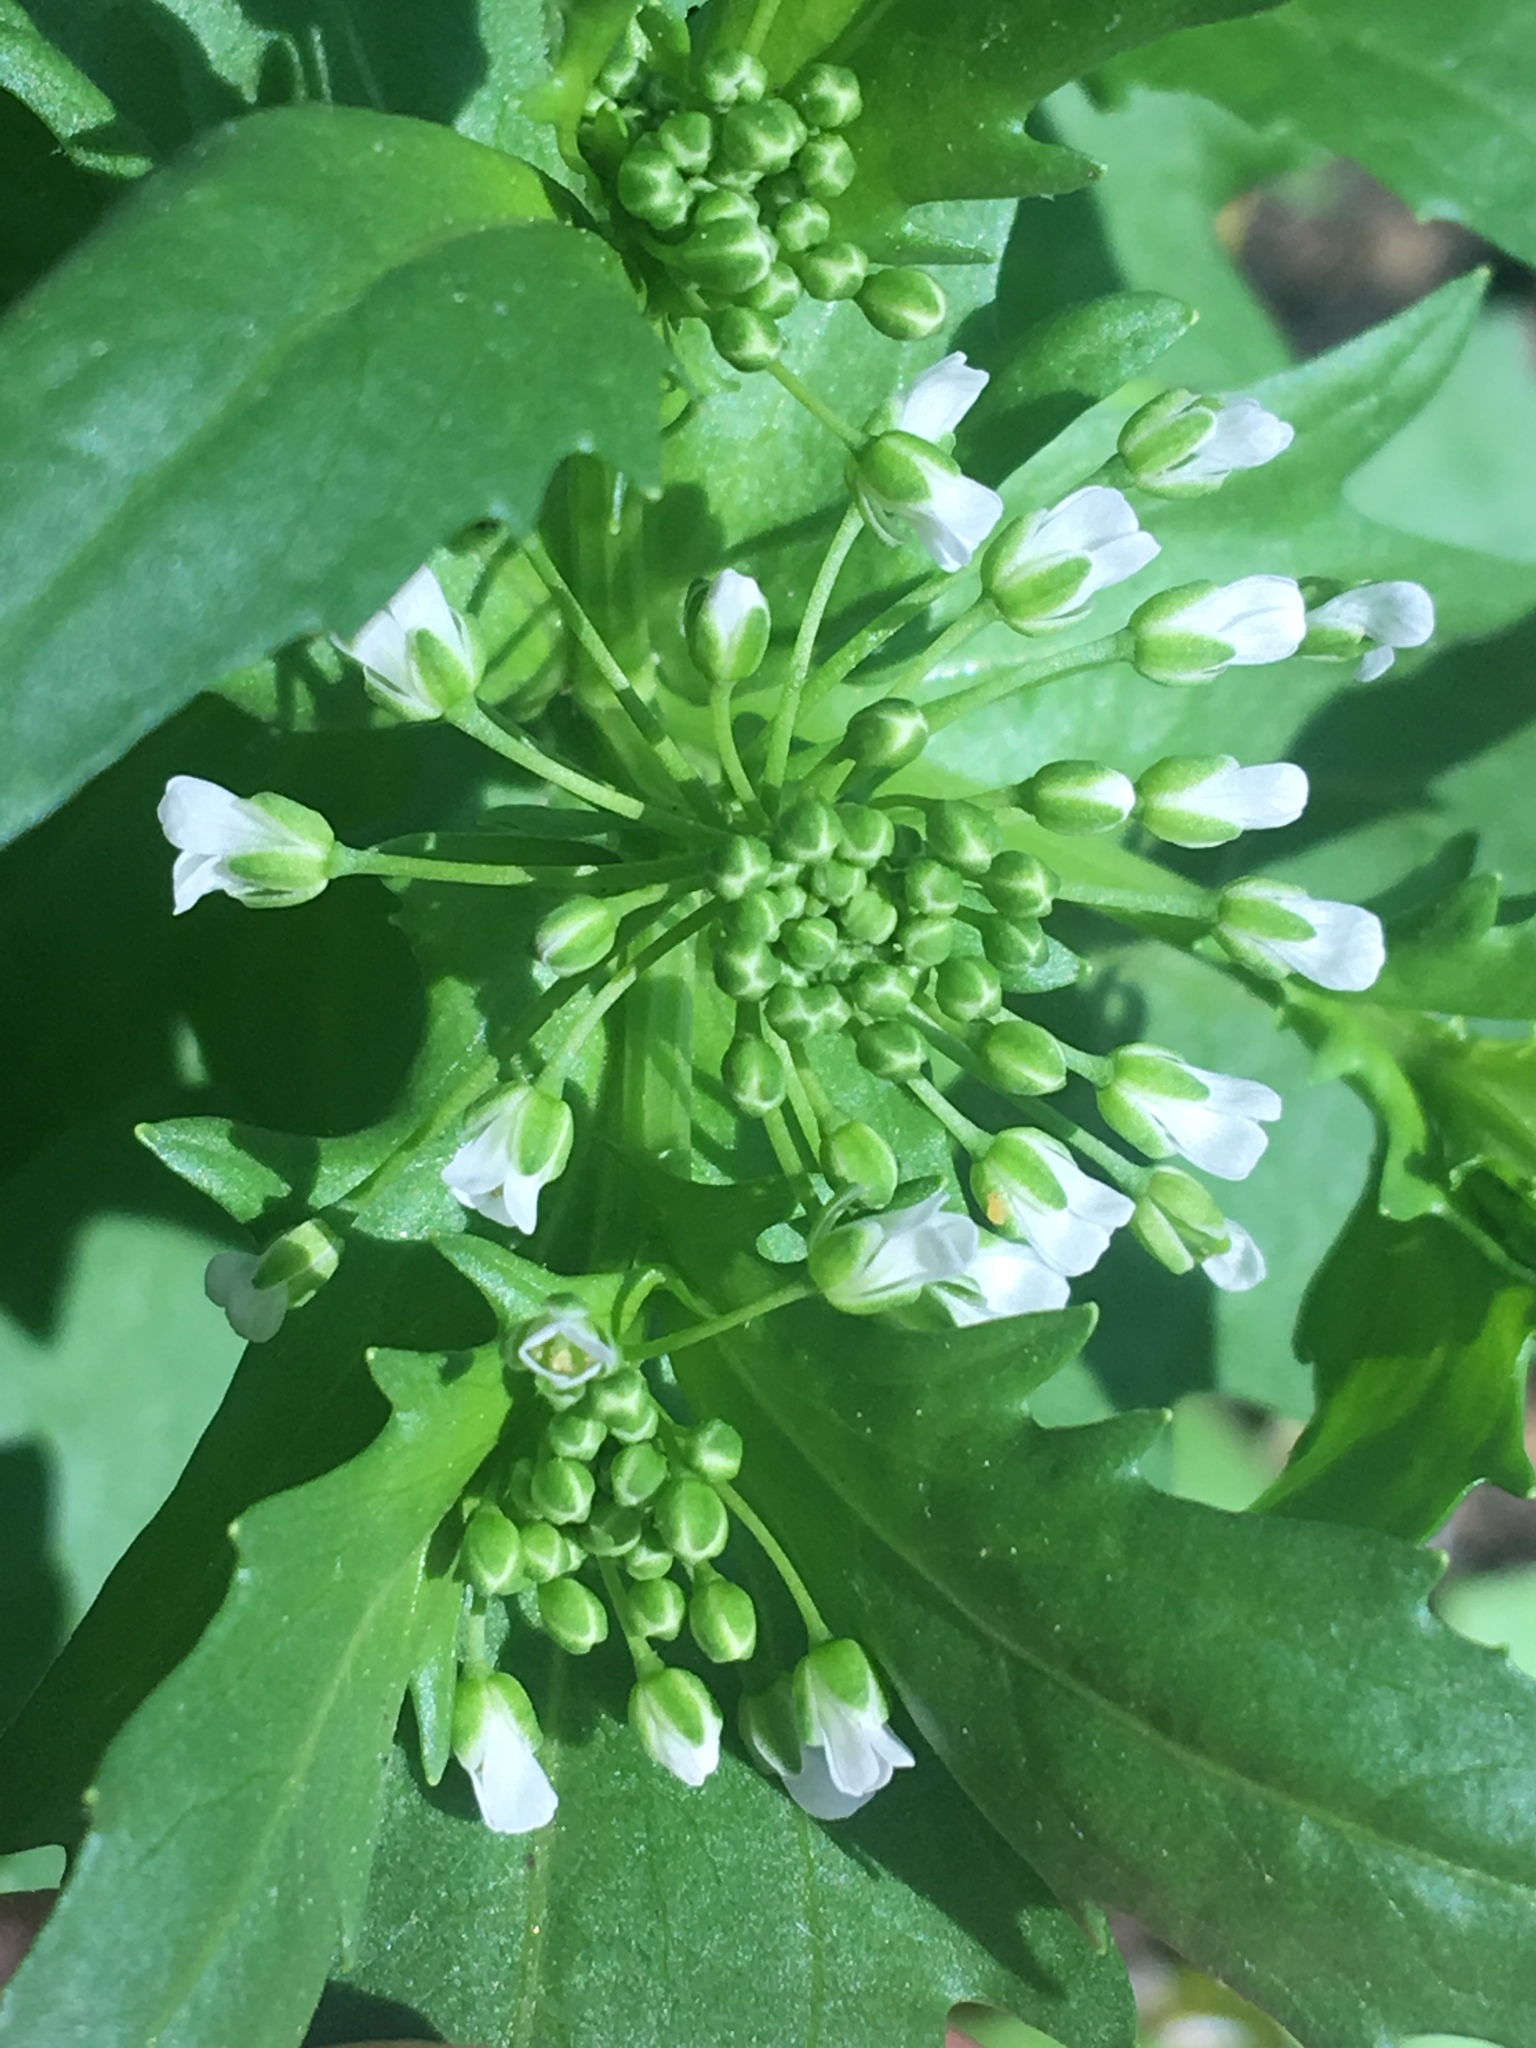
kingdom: Plantae
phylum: Tracheophyta
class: Magnoliopsida
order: Brassicales
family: Brassicaceae
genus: Thlaspi
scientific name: Thlaspi arvense
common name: Field pennycress
